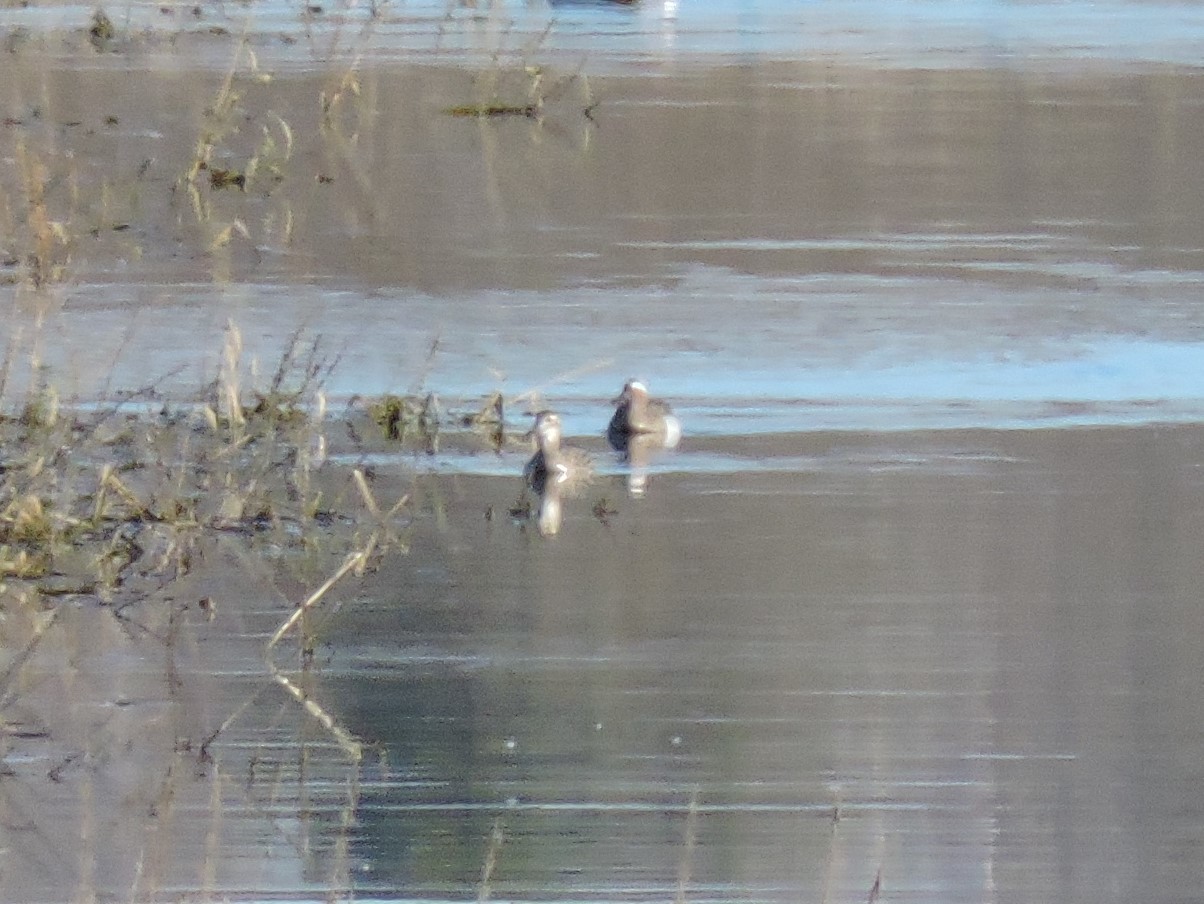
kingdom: Animalia
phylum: Chordata
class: Aves
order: Anseriformes
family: Anatidae
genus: Spatula
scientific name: Spatula querquedula
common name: Garganey
